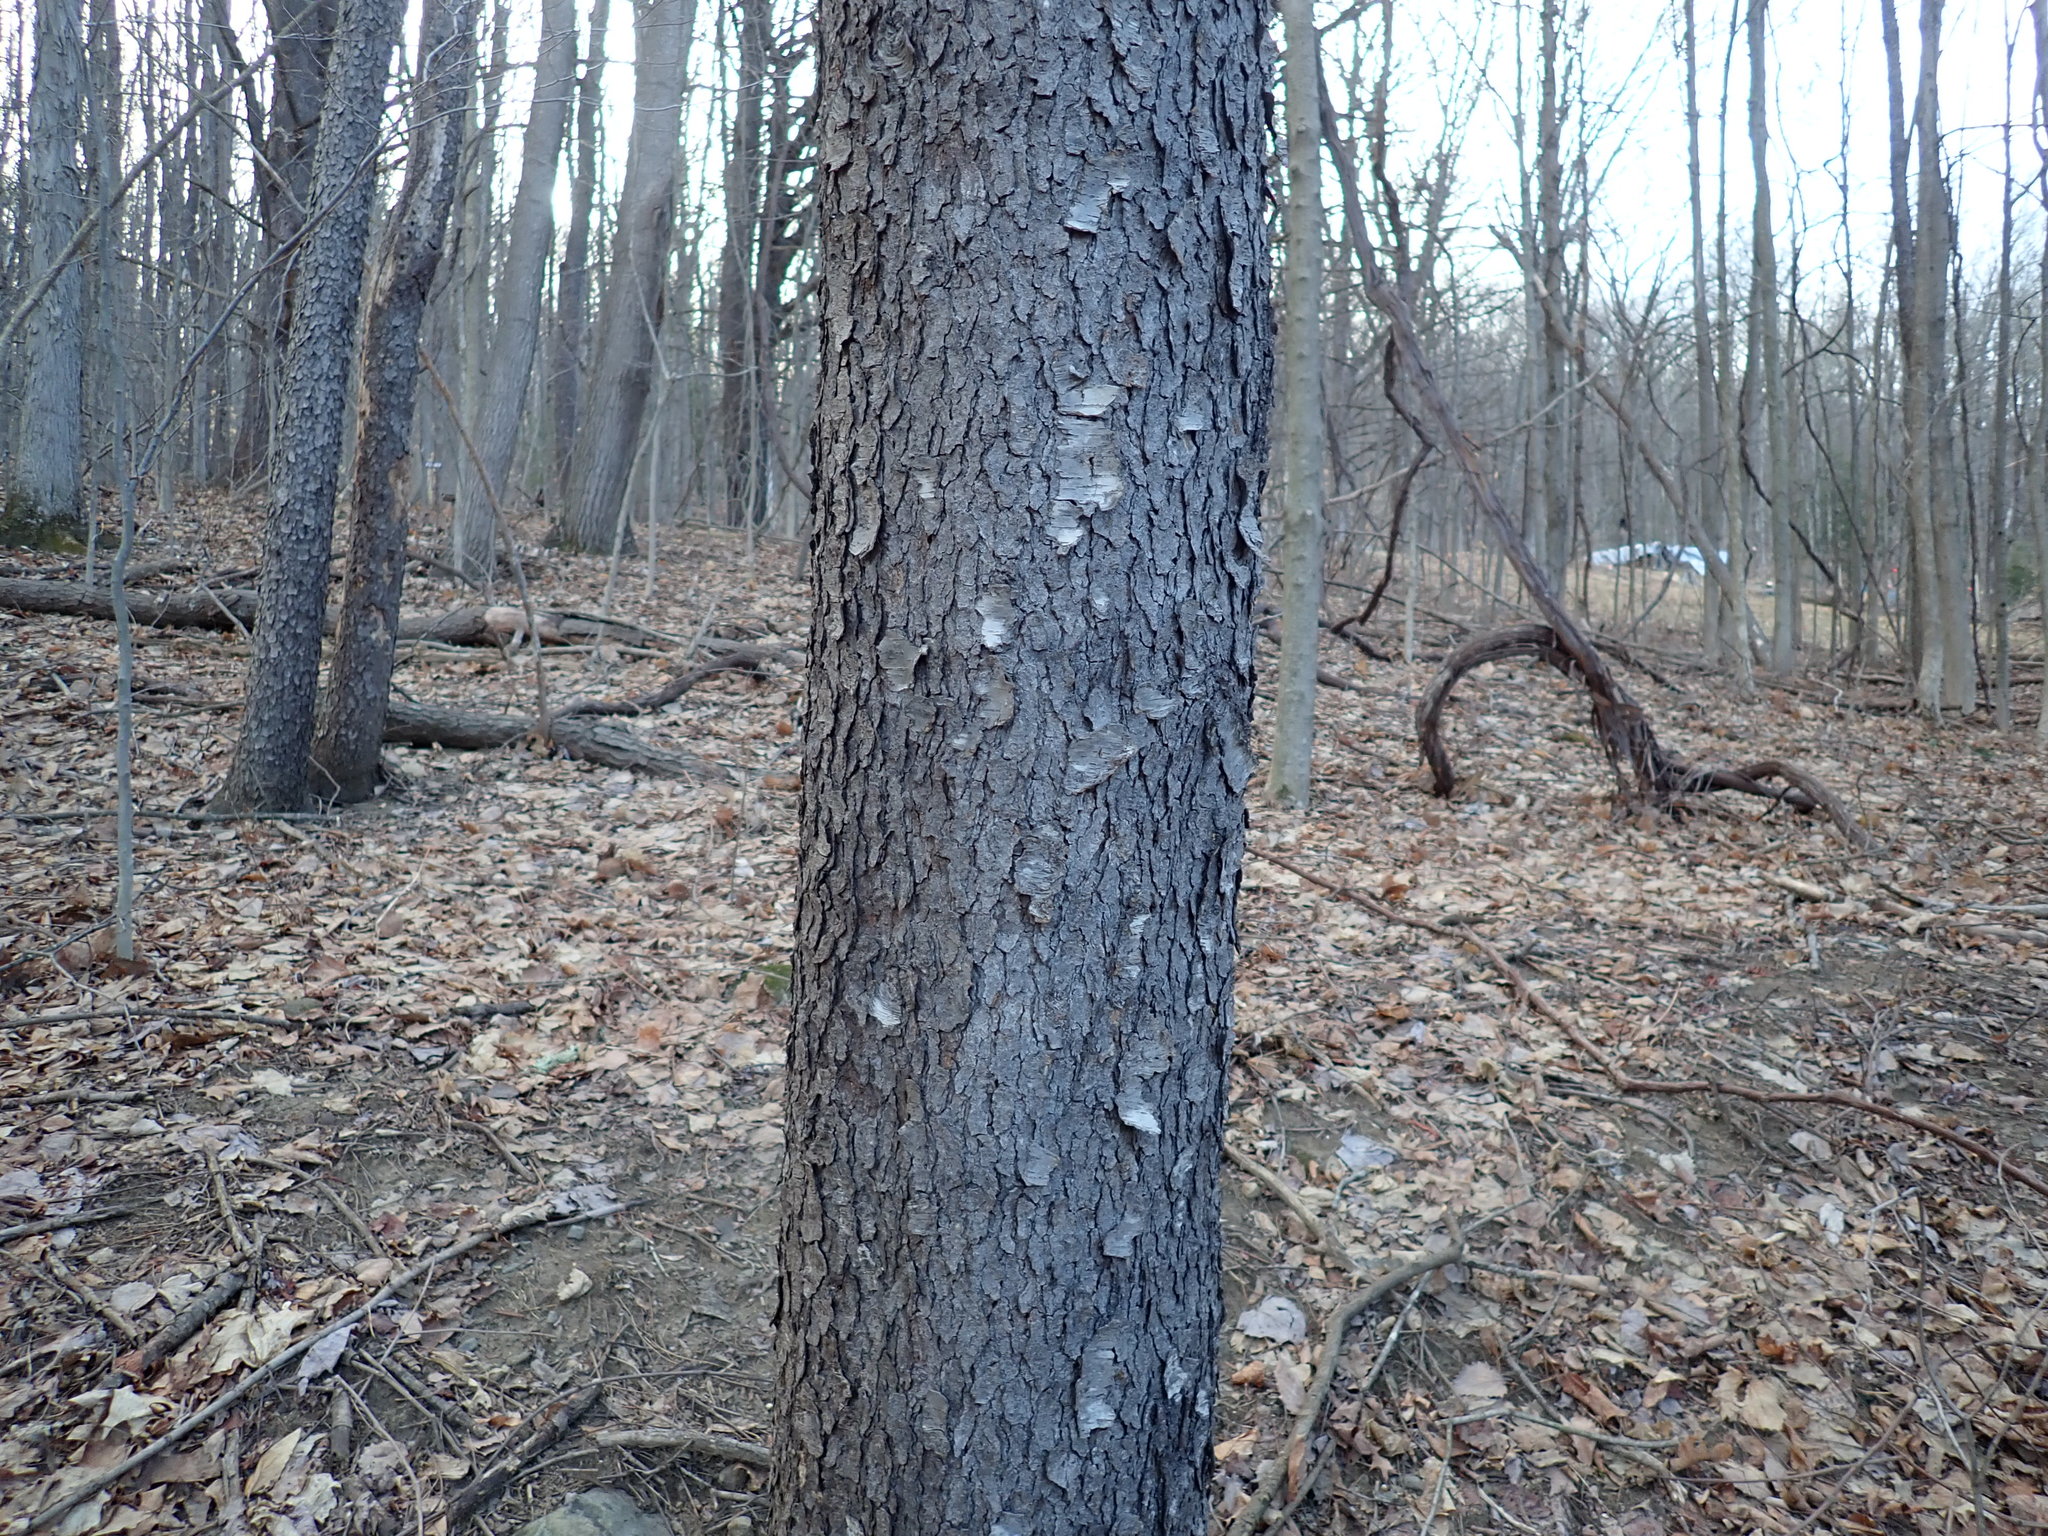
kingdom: Plantae
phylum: Tracheophyta
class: Magnoliopsida
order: Rosales
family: Rosaceae
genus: Prunus
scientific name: Prunus serotina
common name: Black cherry
